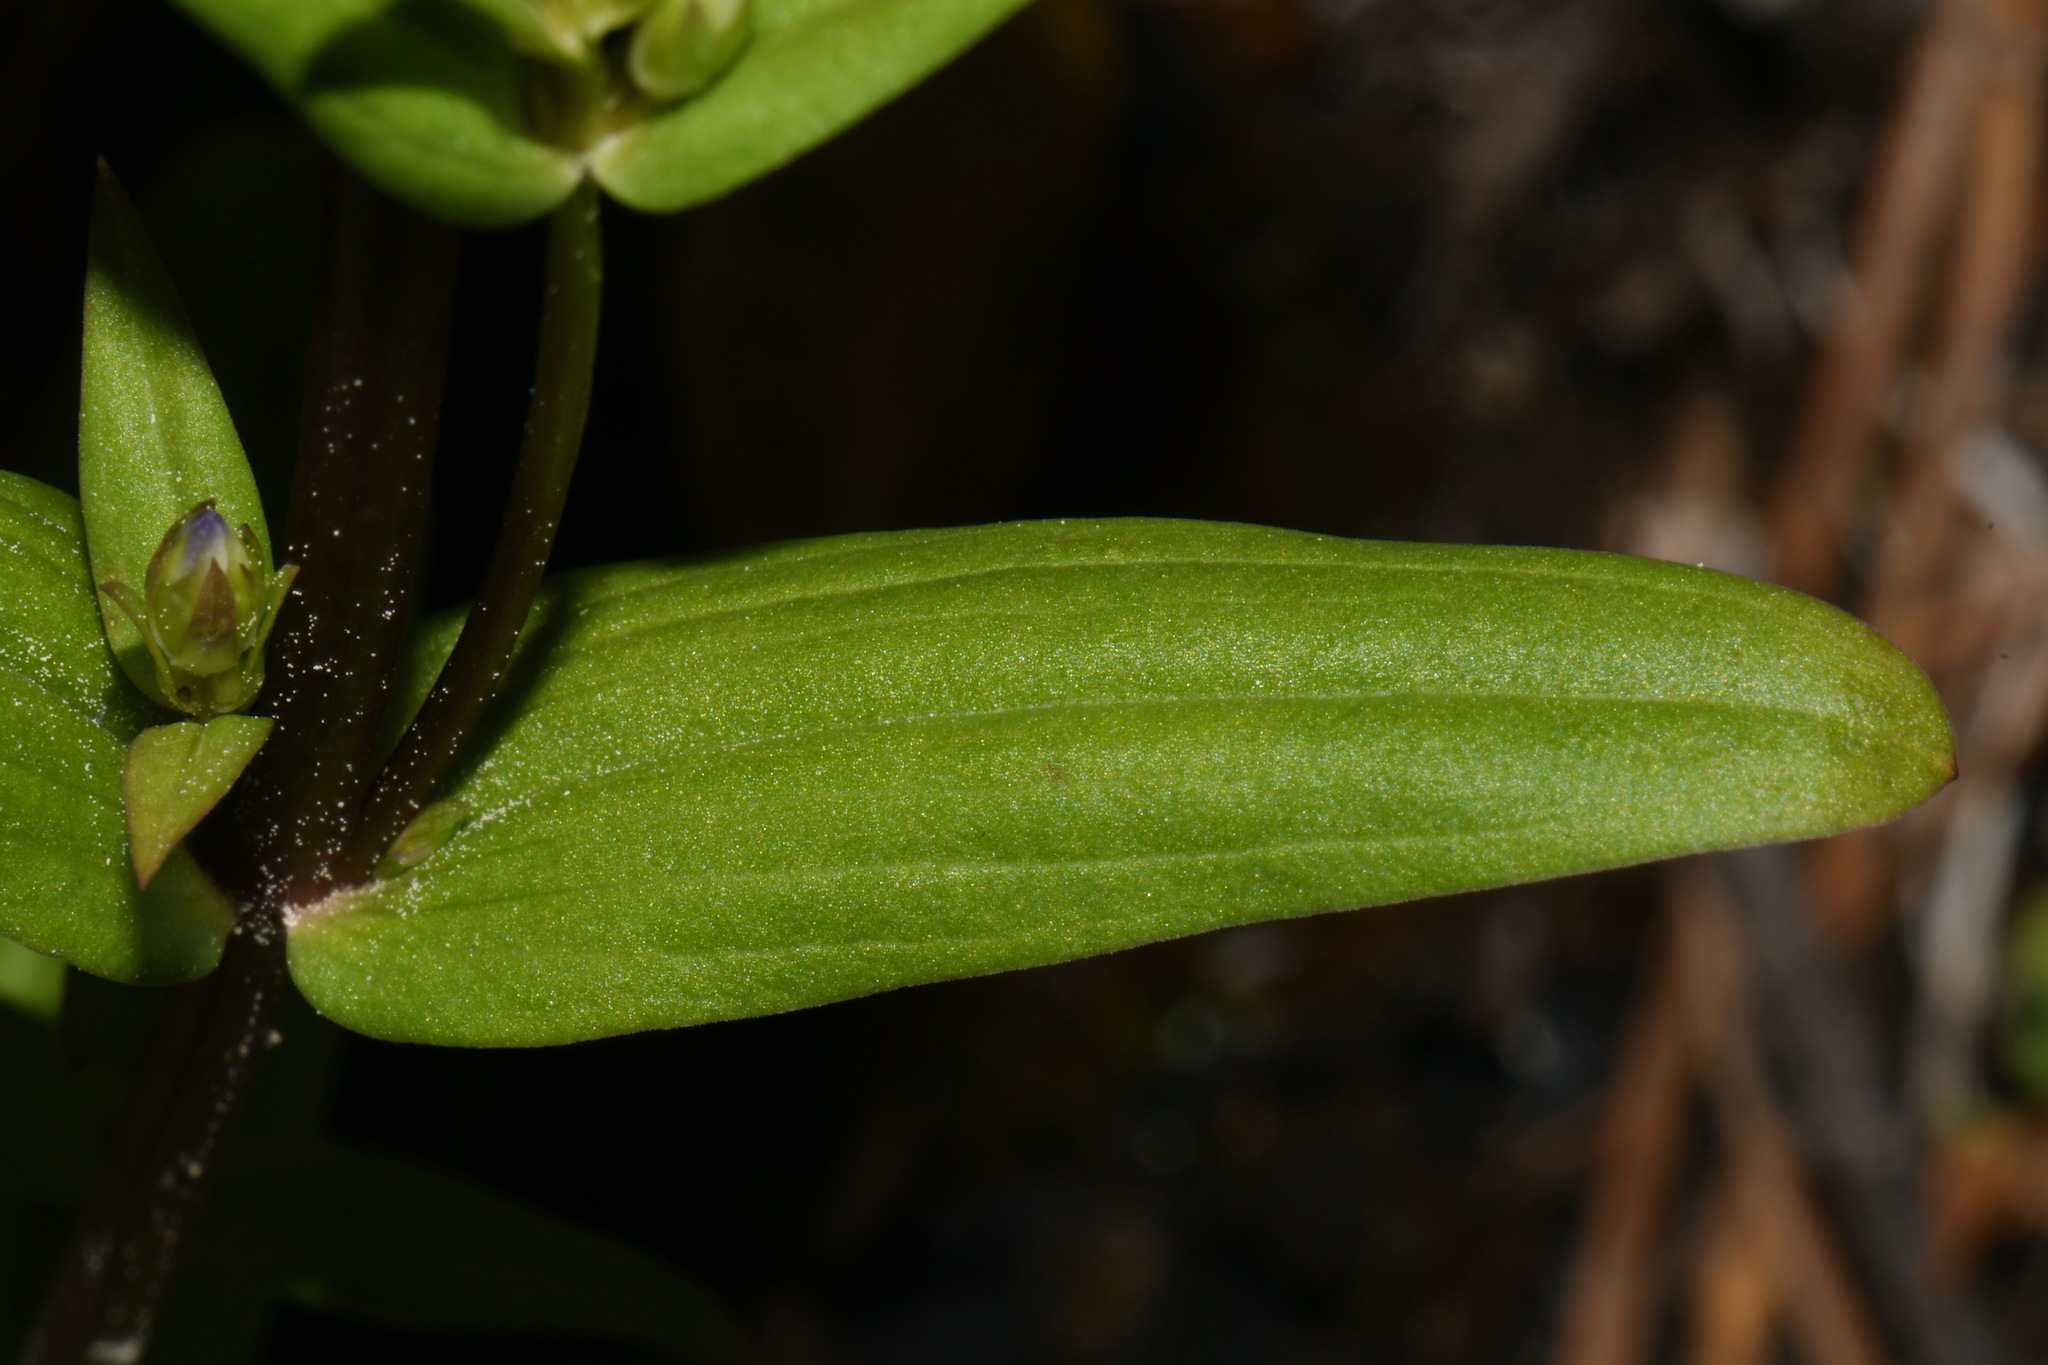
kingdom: Plantae
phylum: Tracheophyta
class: Magnoliopsida
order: Gentianales
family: Gentianaceae
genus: Gentianella
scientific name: Gentianella amarella
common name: Autumn gentian
